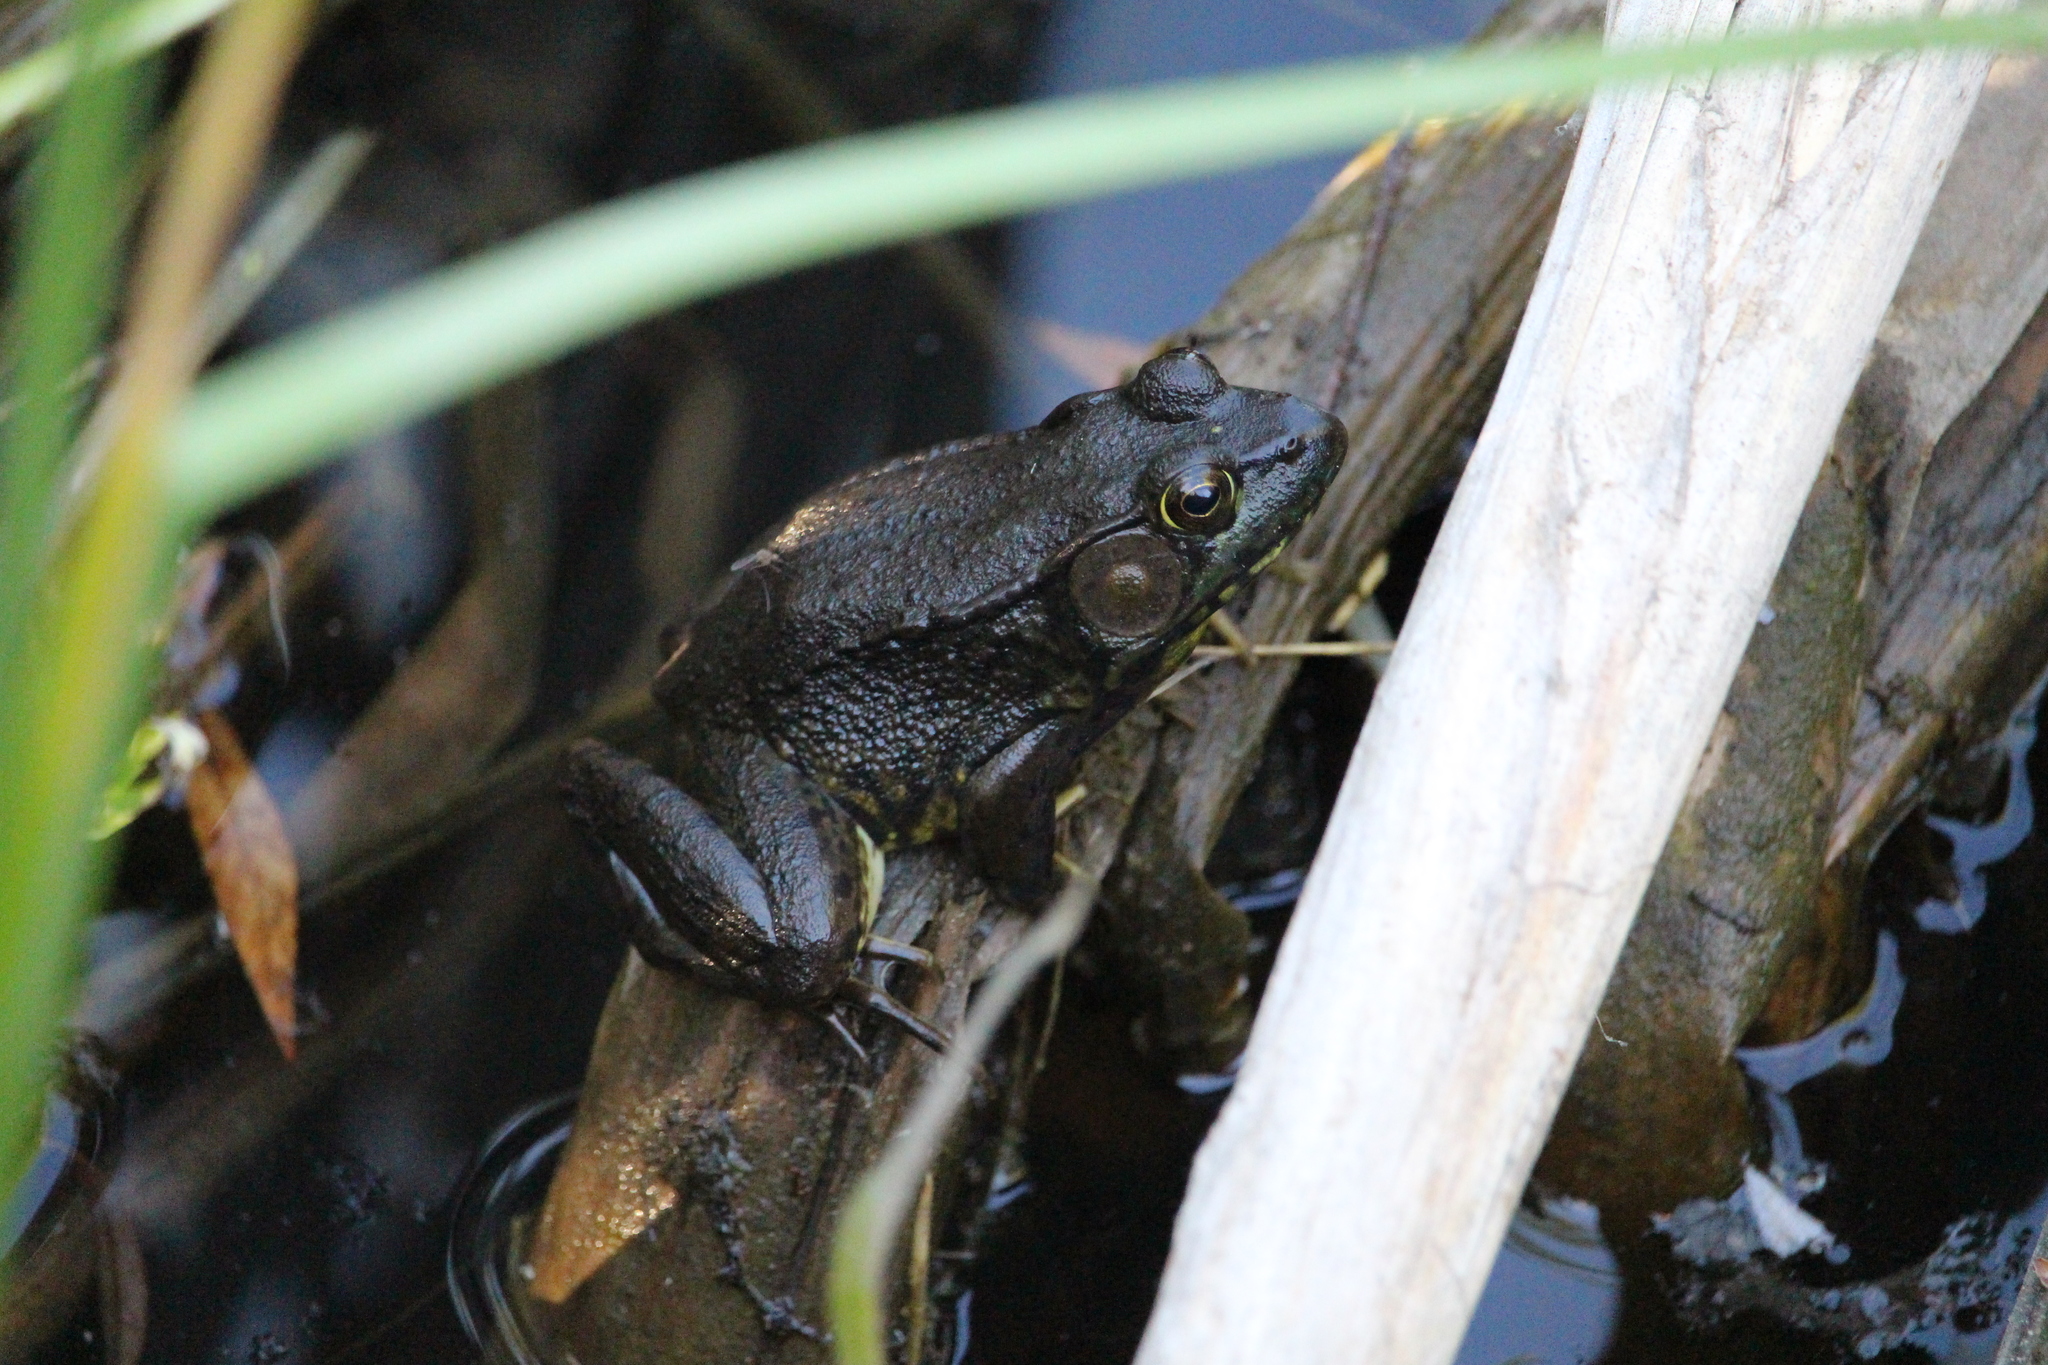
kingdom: Animalia
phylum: Chordata
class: Amphibia
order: Anura
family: Ranidae
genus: Lithobates
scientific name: Lithobates clamitans
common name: Green frog
